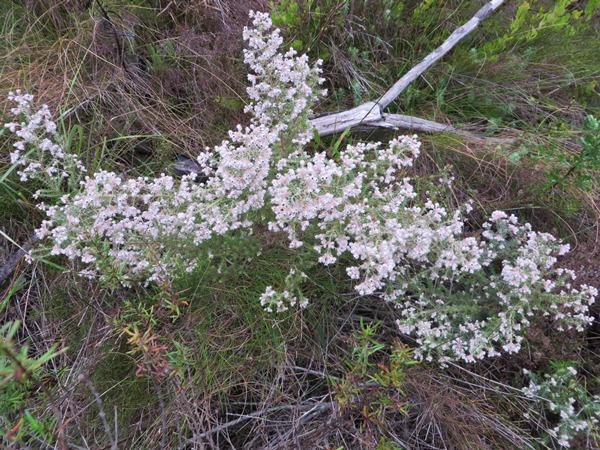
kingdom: Plantae
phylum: Tracheophyta
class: Magnoliopsida
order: Ericales
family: Ericaceae
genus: Erica
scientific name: Erica perlata
